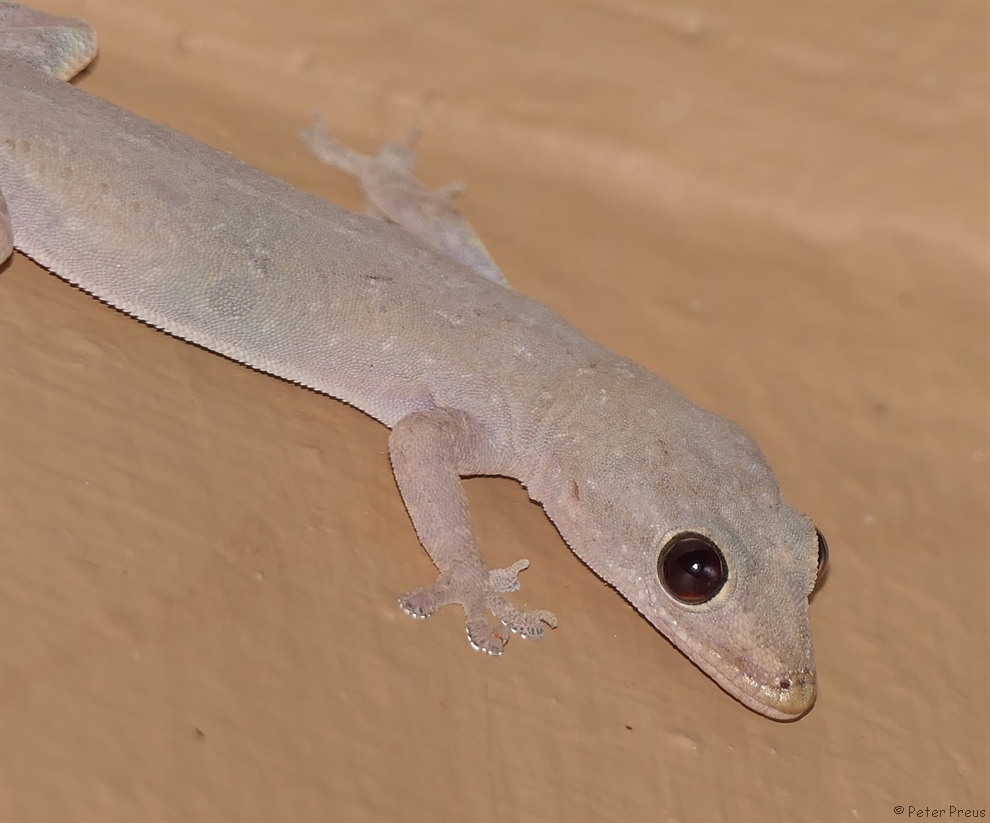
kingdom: Animalia
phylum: Chordata
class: Squamata
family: Gekkonidae
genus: Hemidactylus
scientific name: Hemidactylus frenatus
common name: Common house gecko
